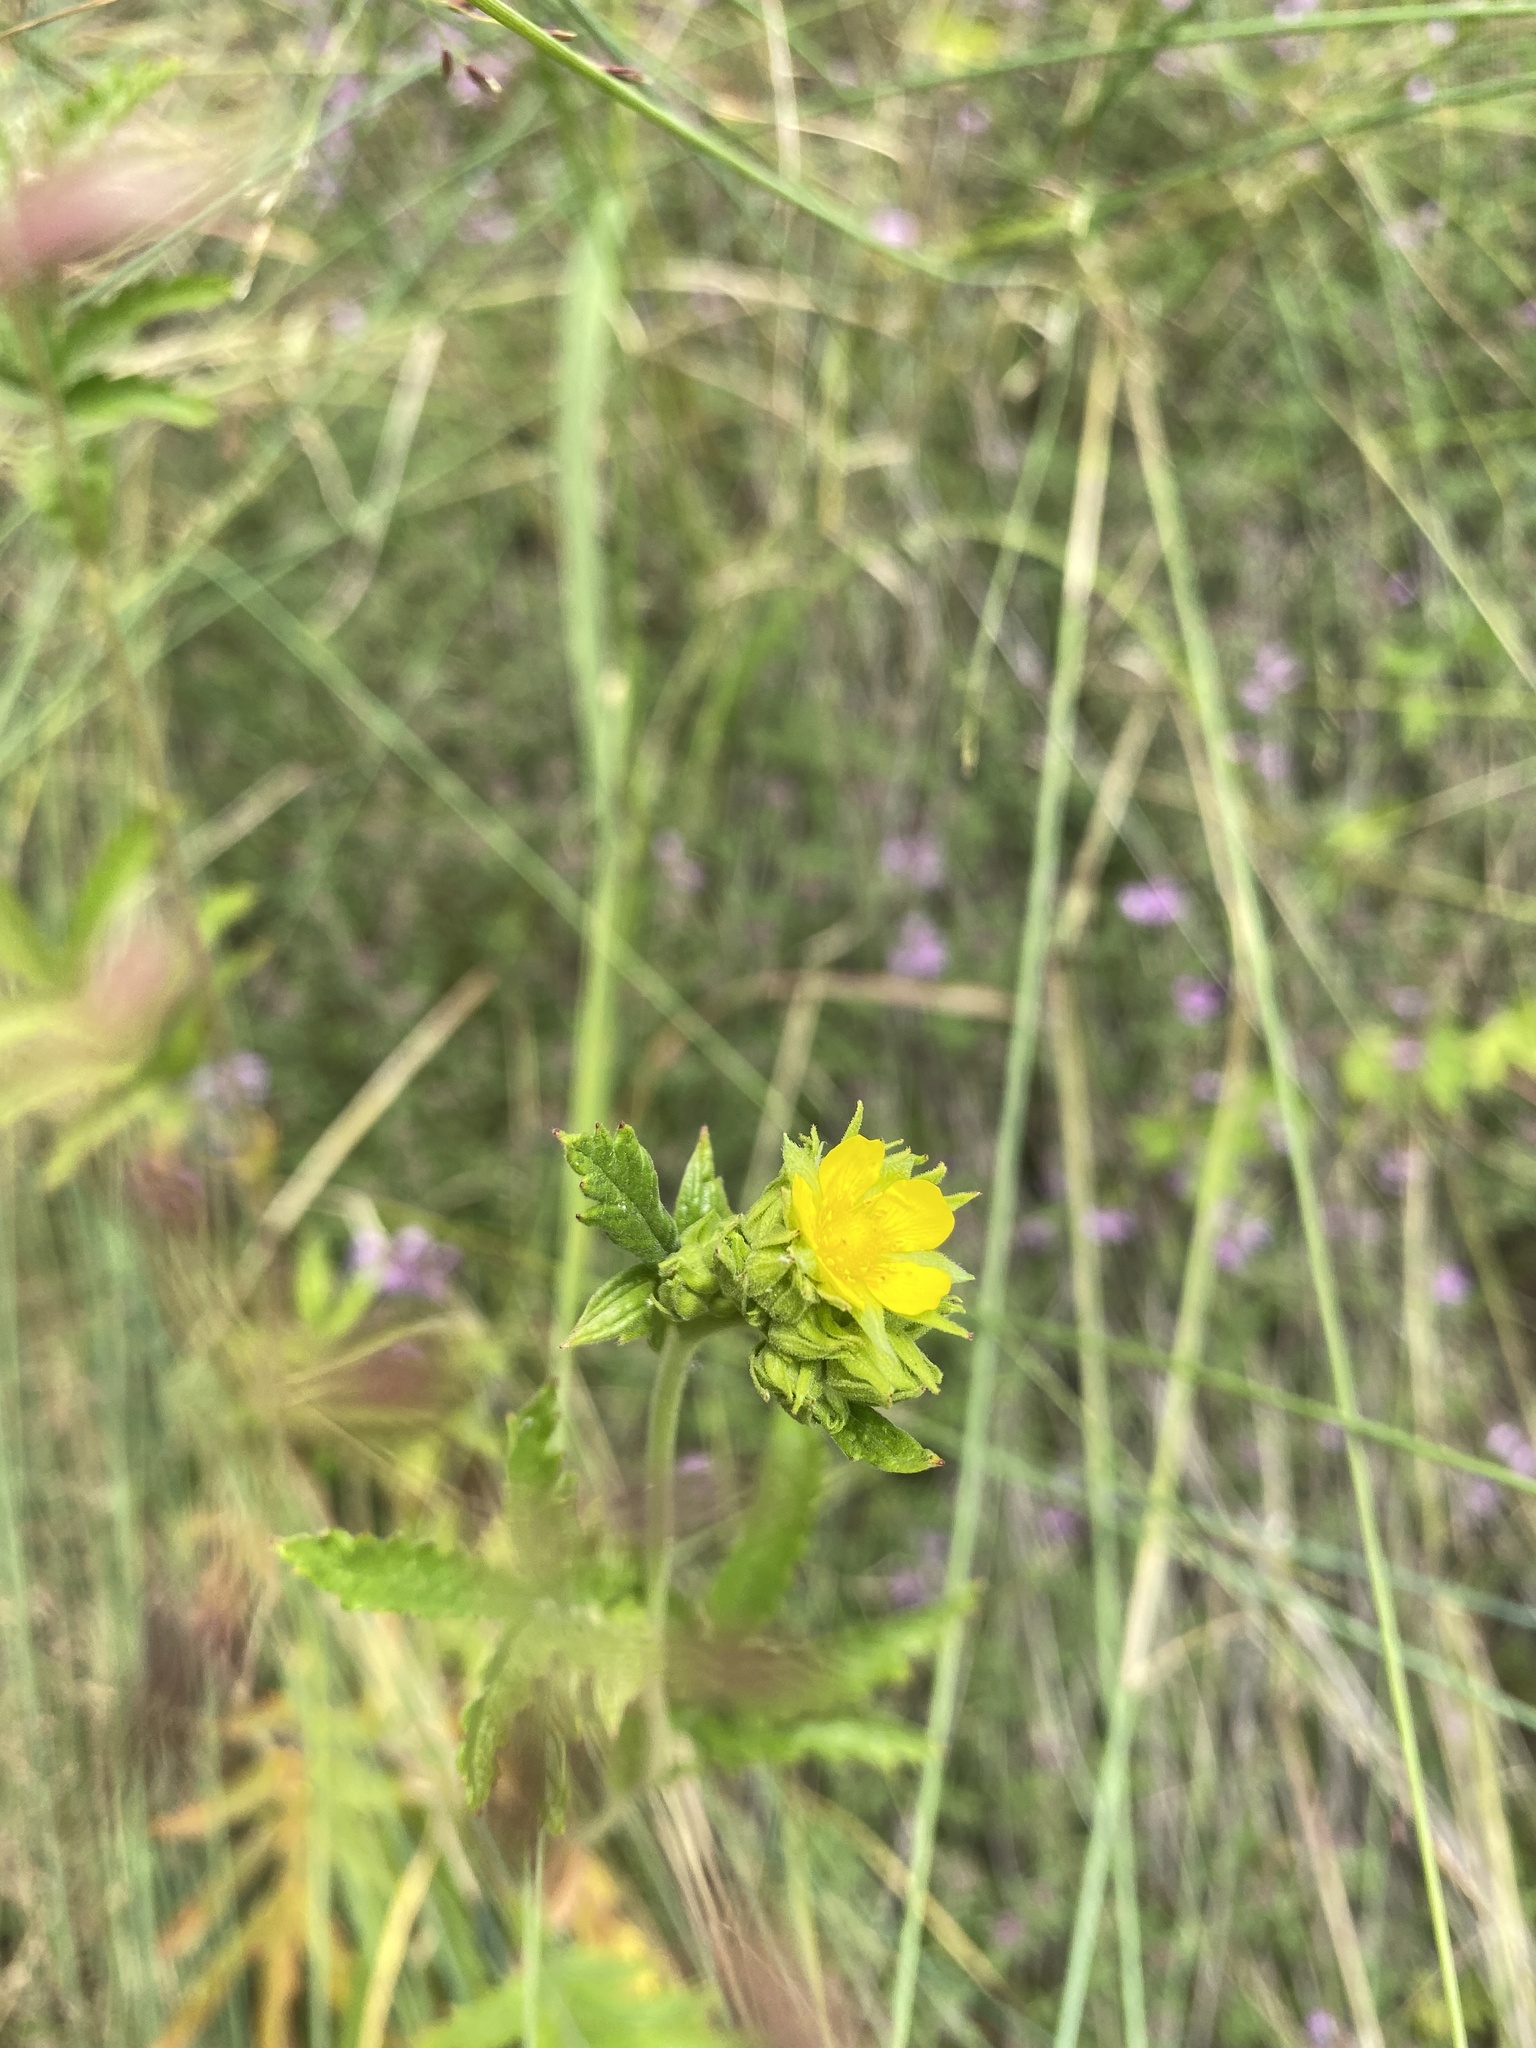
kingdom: Plantae
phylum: Tracheophyta
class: Magnoliopsida
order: Rosales
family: Rosaceae
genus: Potentilla
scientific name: Potentilla longifolia
